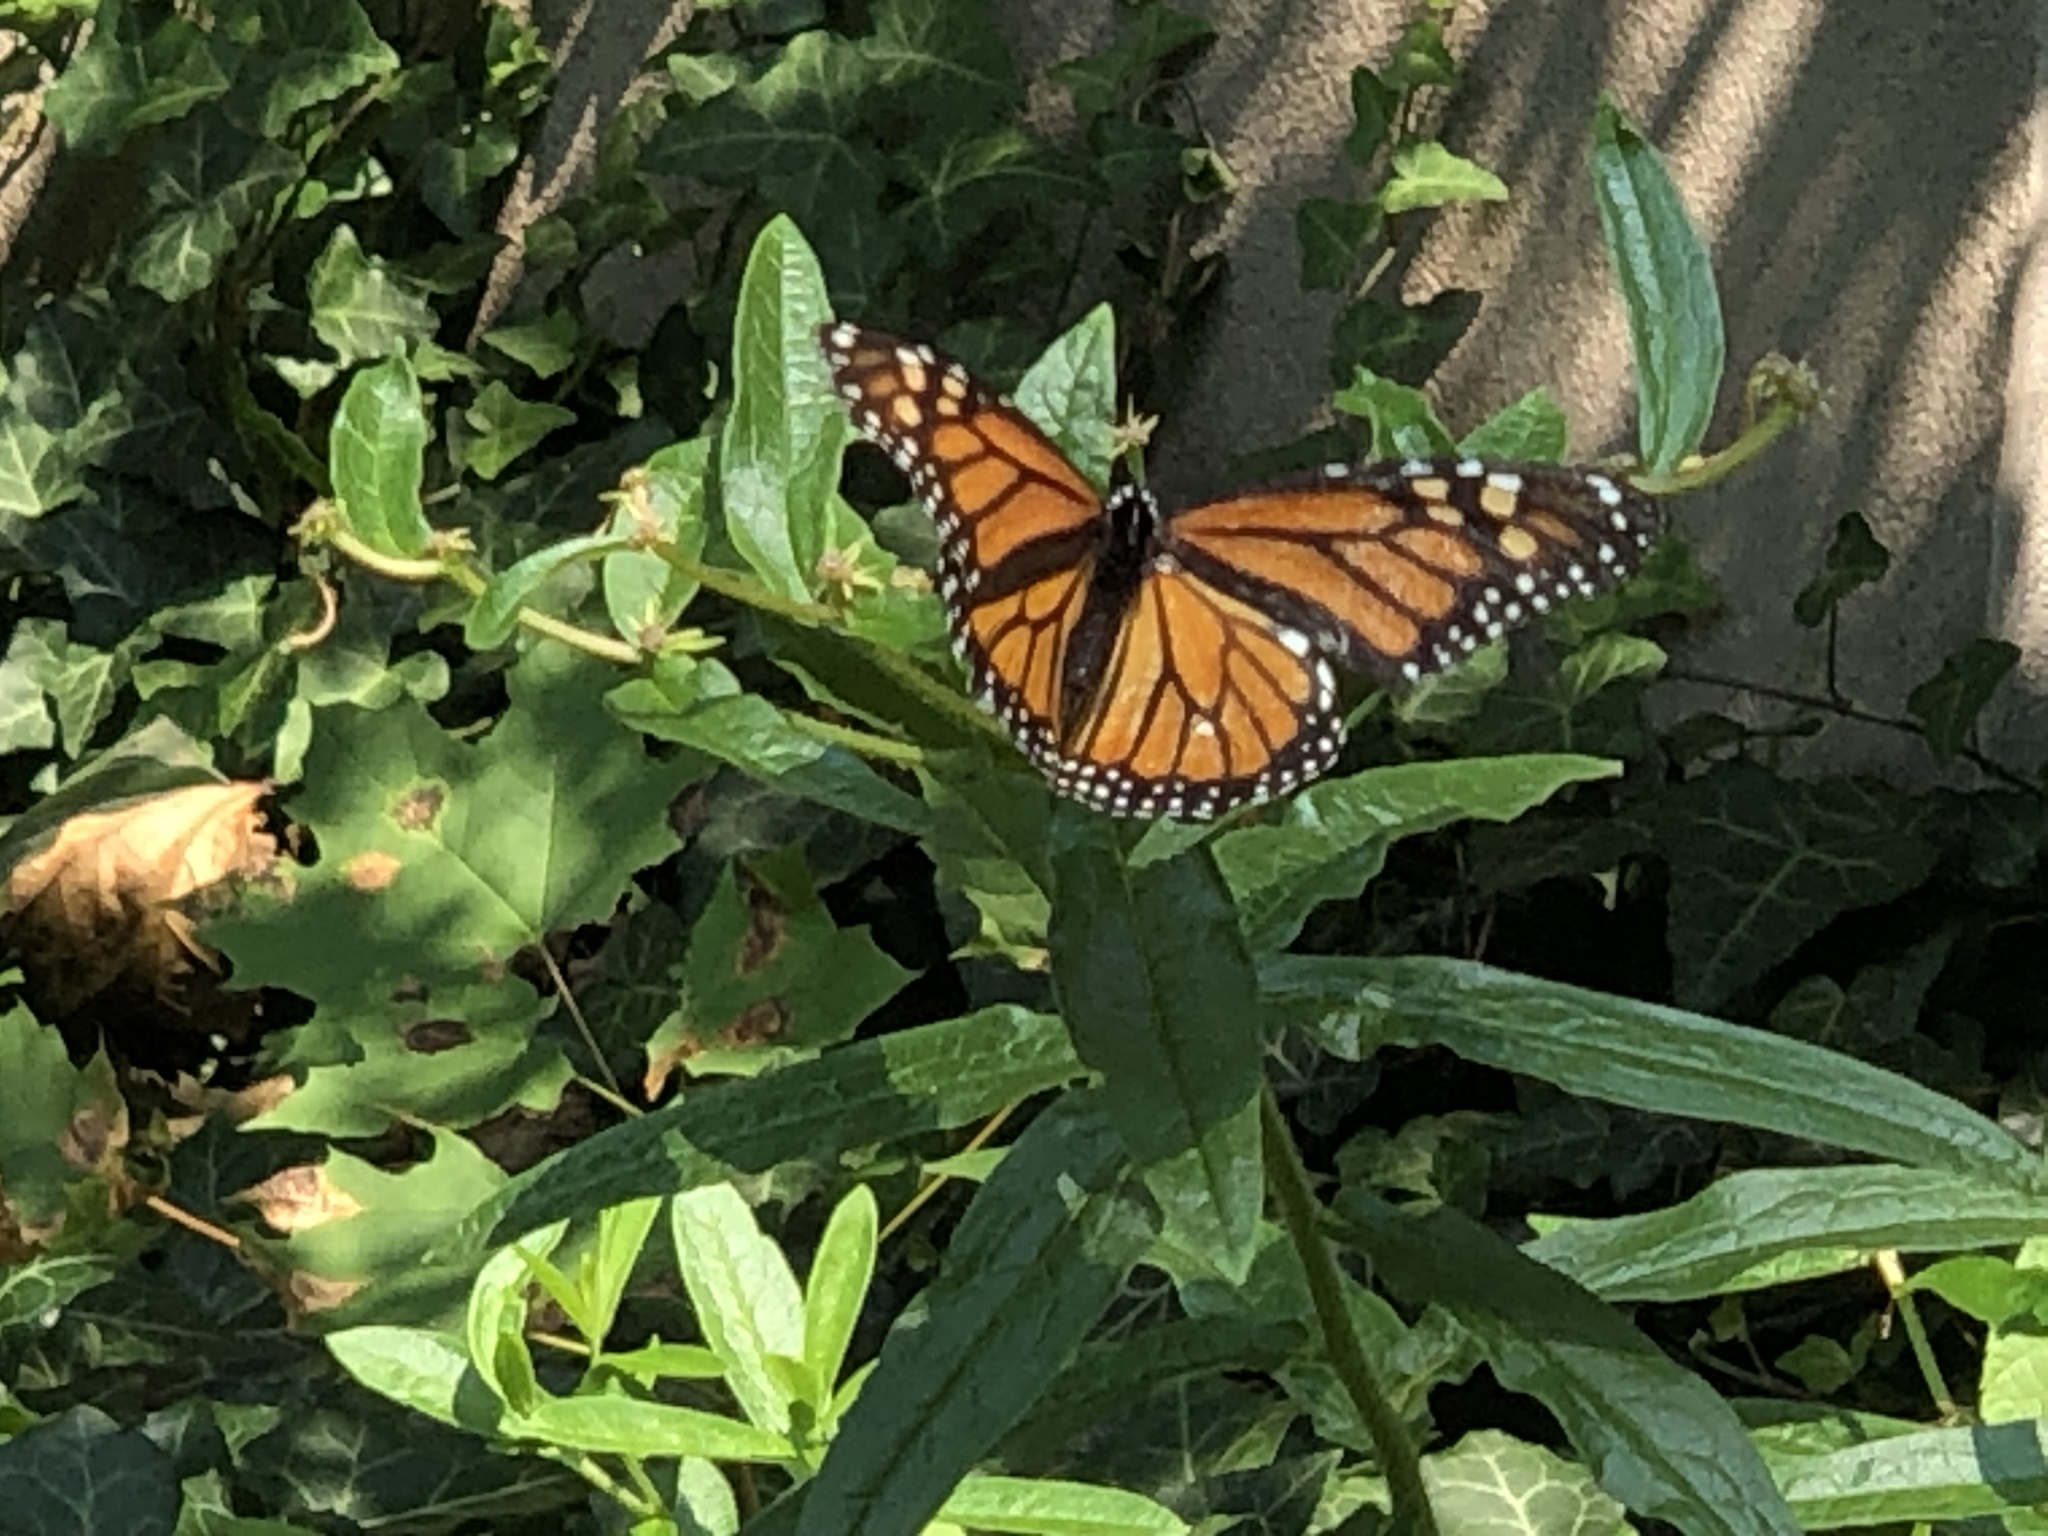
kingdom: Animalia
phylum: Arthropoda
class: Insecta
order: Lepidoptera
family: Nymphalidae
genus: Danaus
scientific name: Danaus plexippus
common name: Monarch
